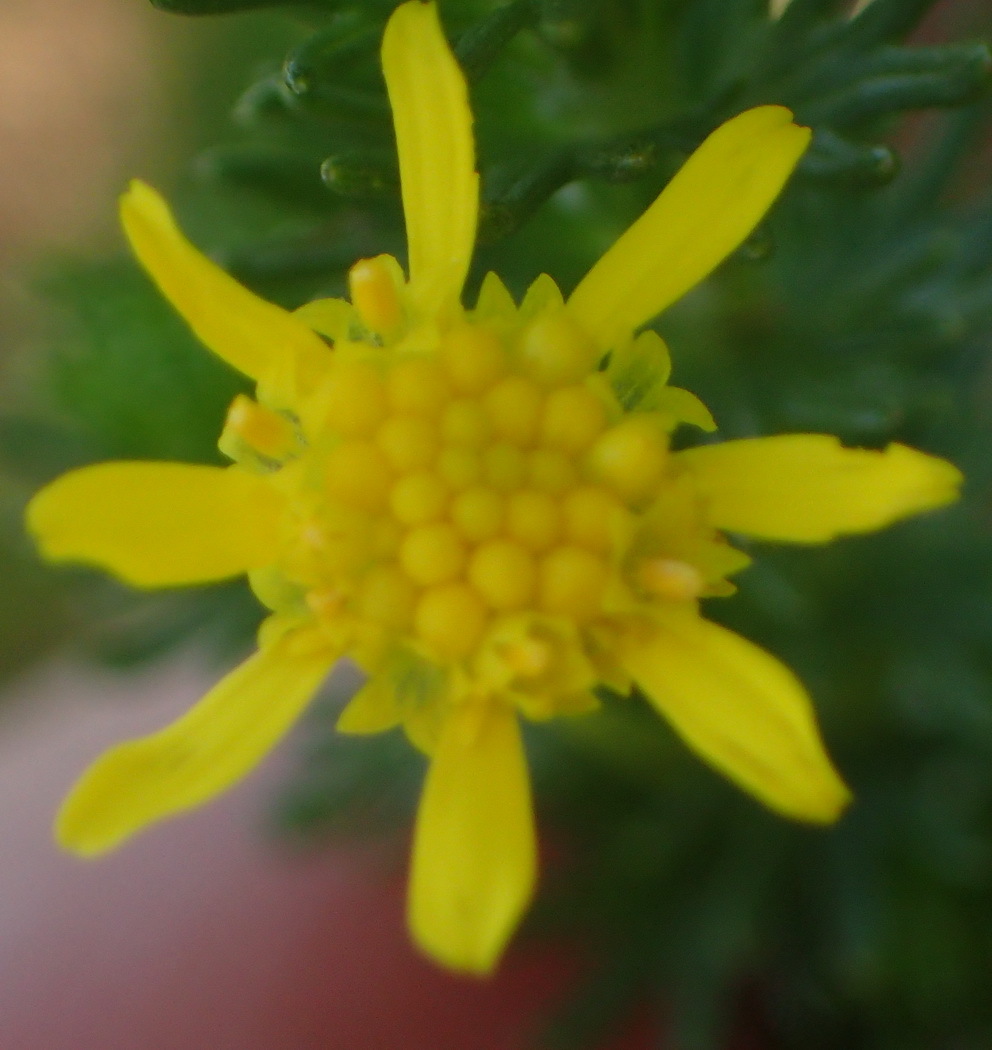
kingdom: Plantae
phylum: Tracheophyta
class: Magnoliopsida
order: Asterales
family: Asteraceae
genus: Euryops
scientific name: Euryops virgineus
